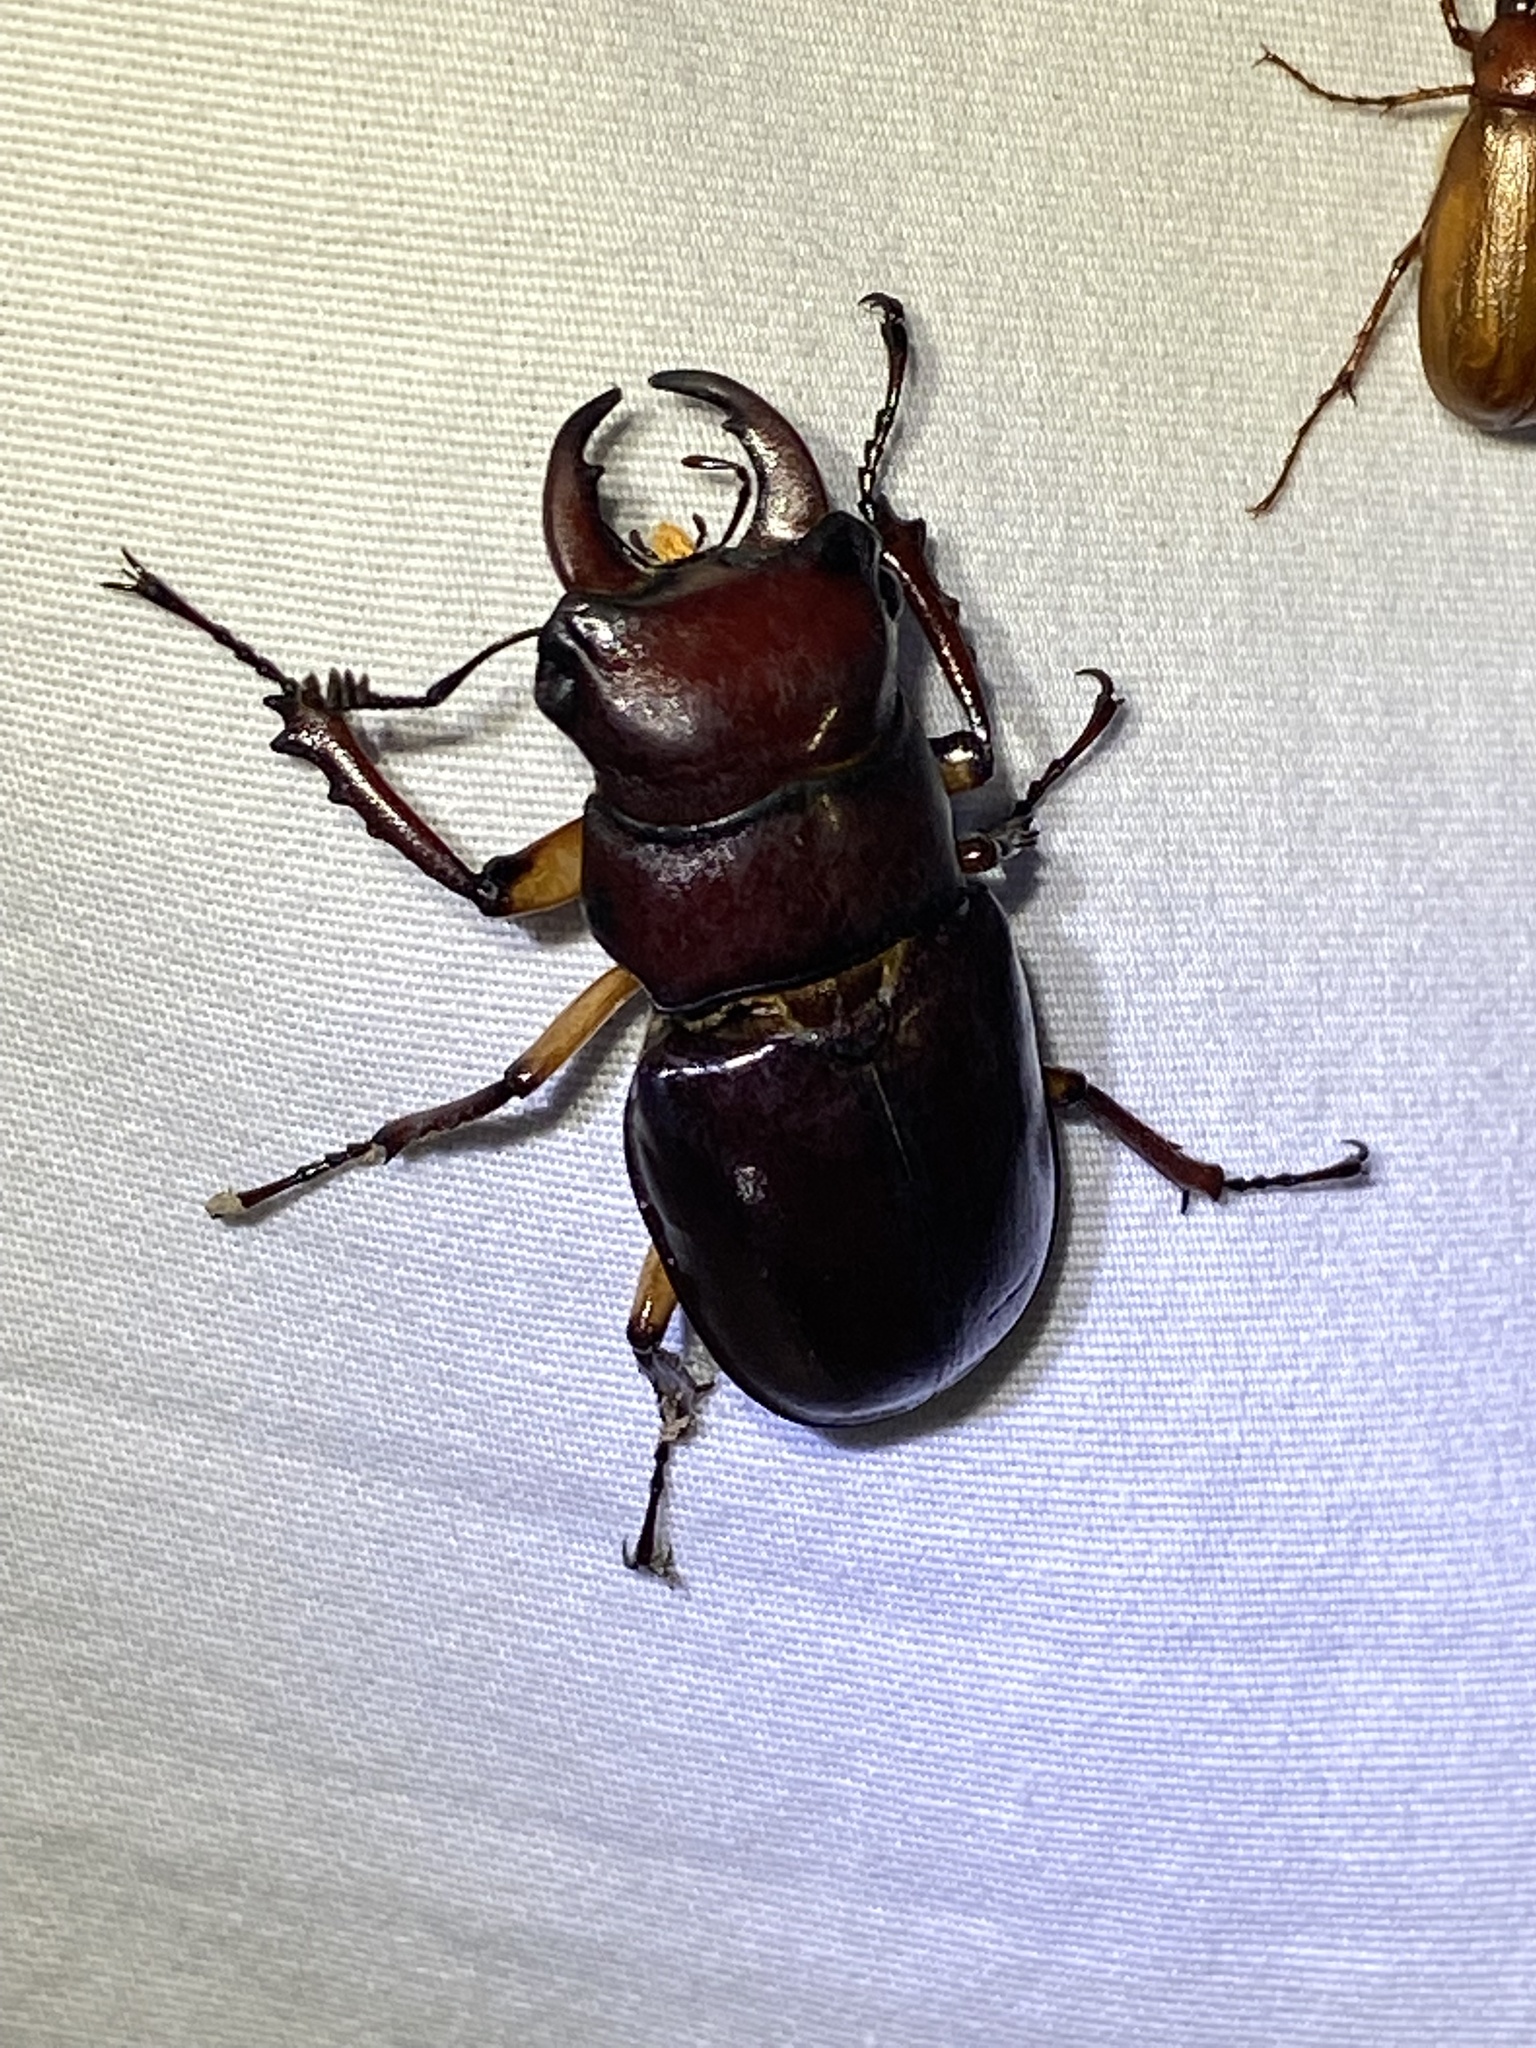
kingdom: Animalia
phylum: Arthropoda
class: Insecta
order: Coleoptera
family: Lucanidae
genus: Lucanus
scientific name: Lucanus capreolus
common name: Stag beetle
